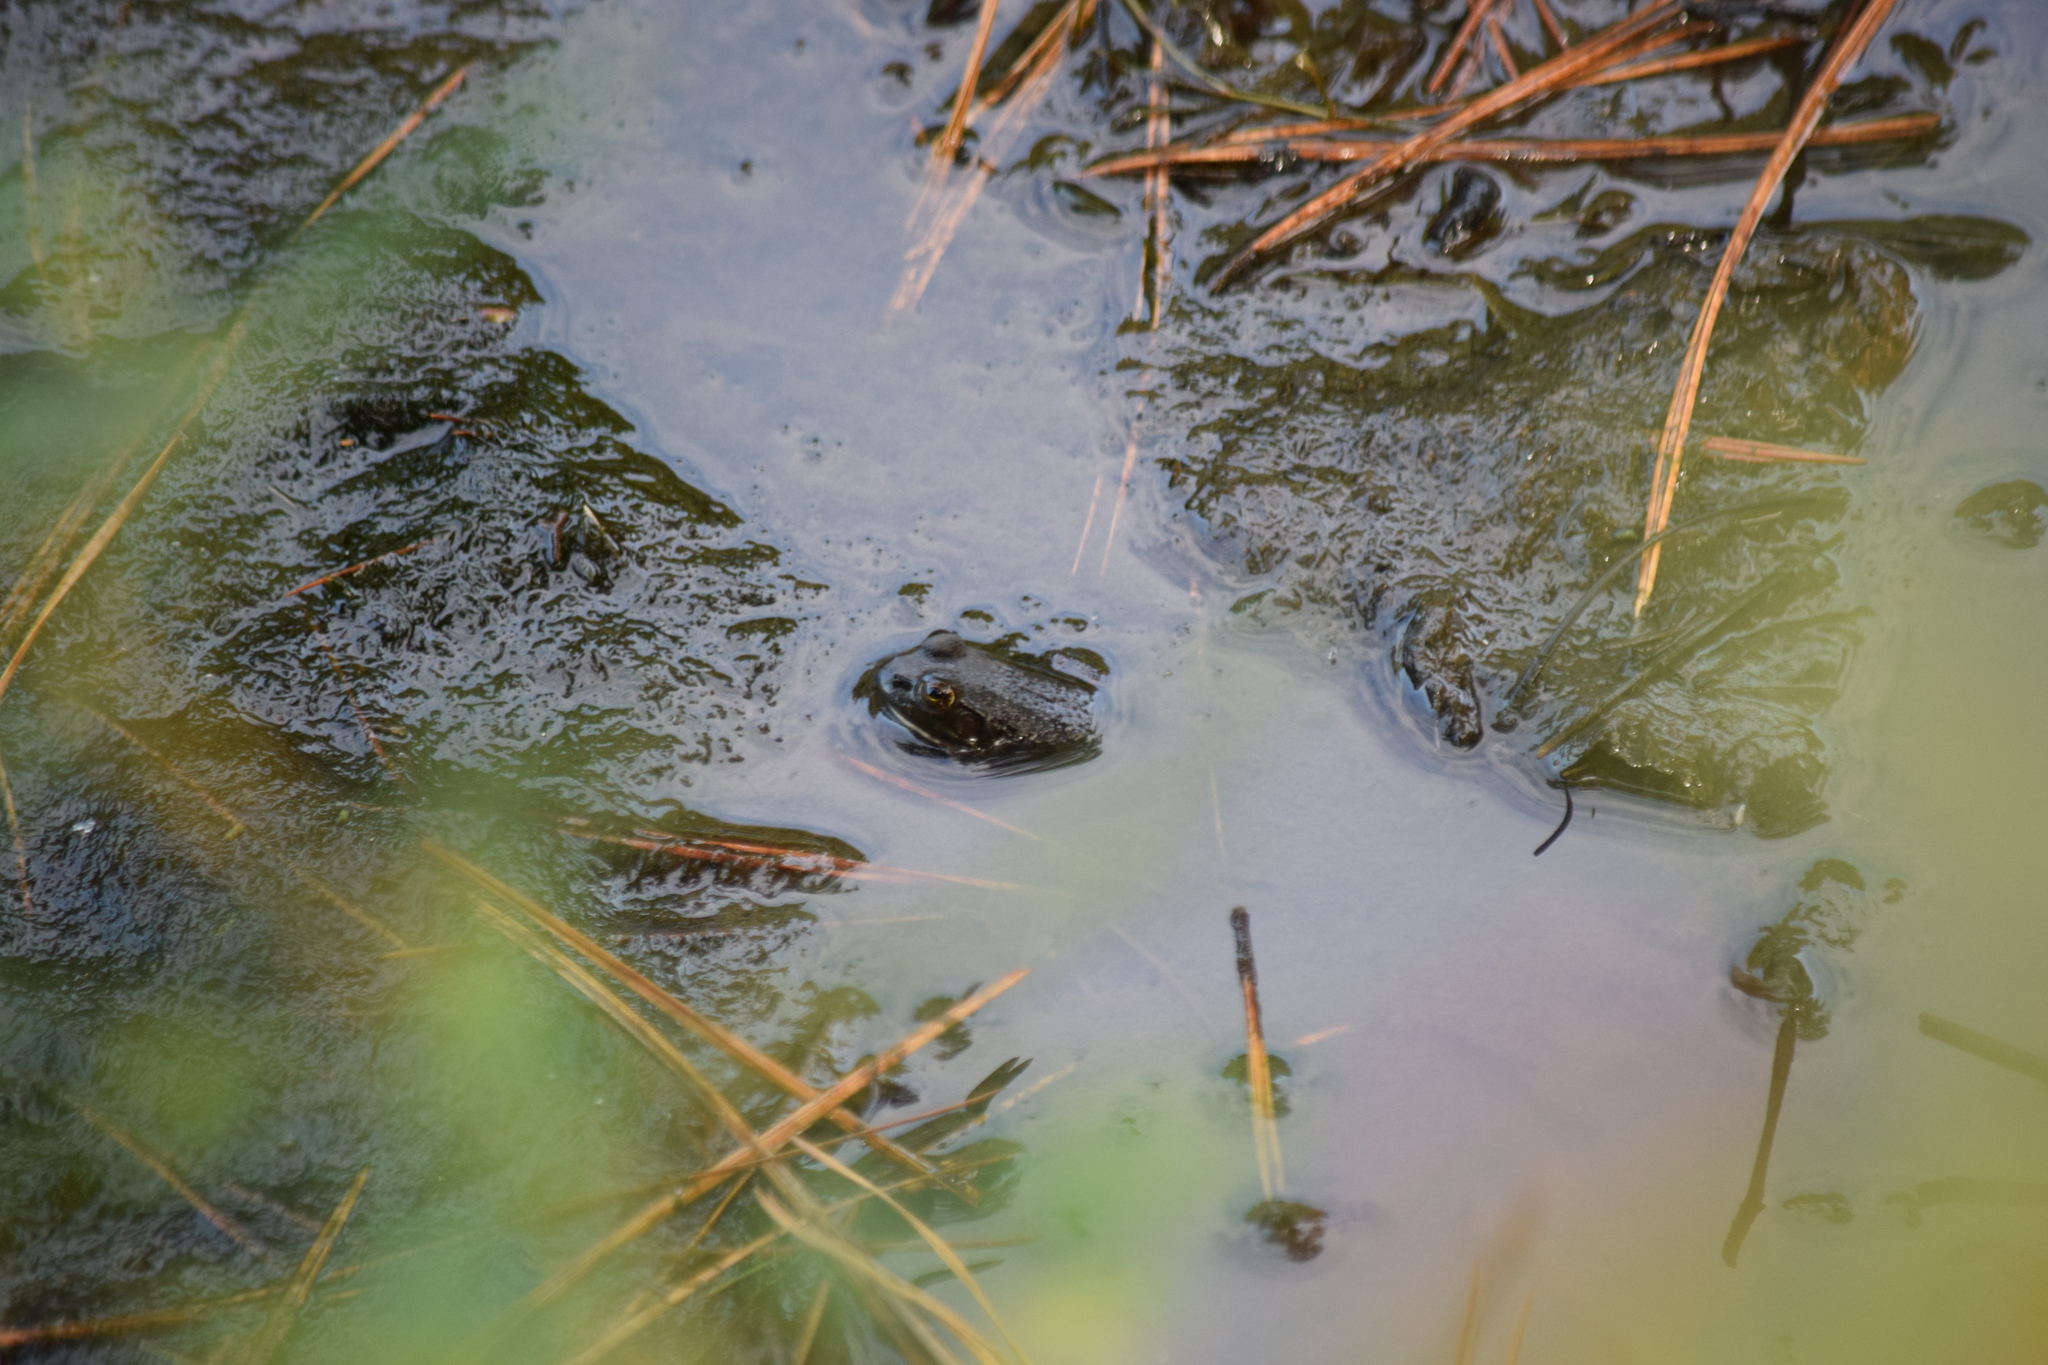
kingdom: Animalia
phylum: Chordata
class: Amphibia
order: Anura
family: Ranidae
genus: Lithobates
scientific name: Lithobates catesbeianus
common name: American bullfrog
